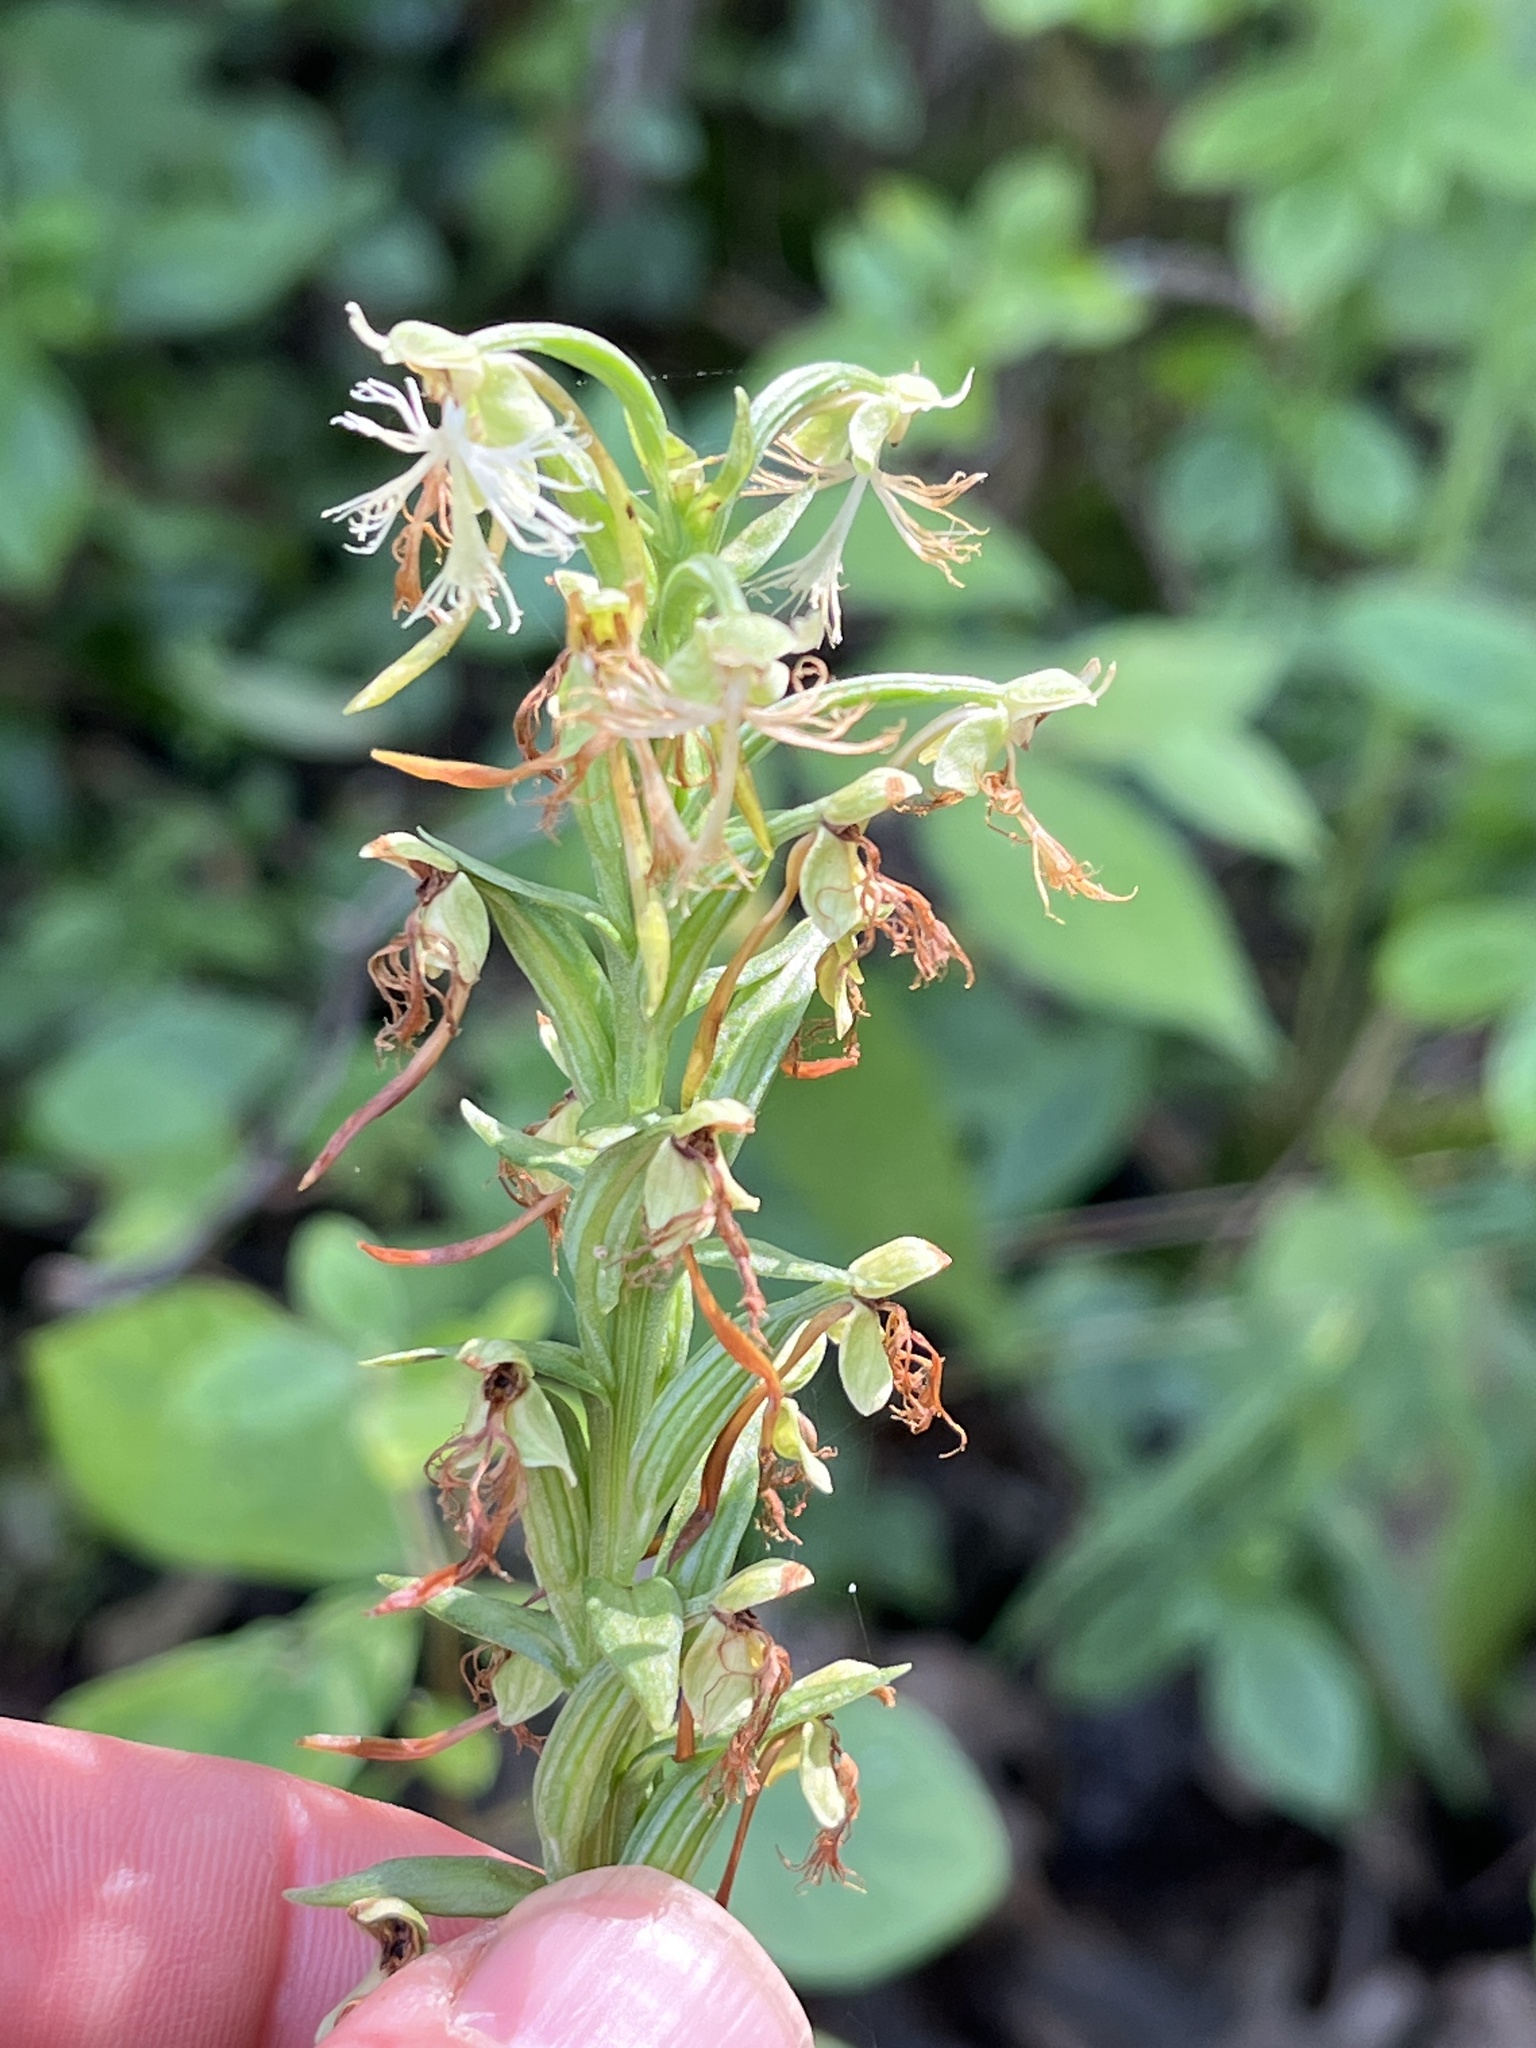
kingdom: Plantae
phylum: Tracheophyta
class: Liliopsida
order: Asparagales
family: Orchidaceae
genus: Platanthera
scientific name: Platanthera lacera
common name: Green fringed orchid
